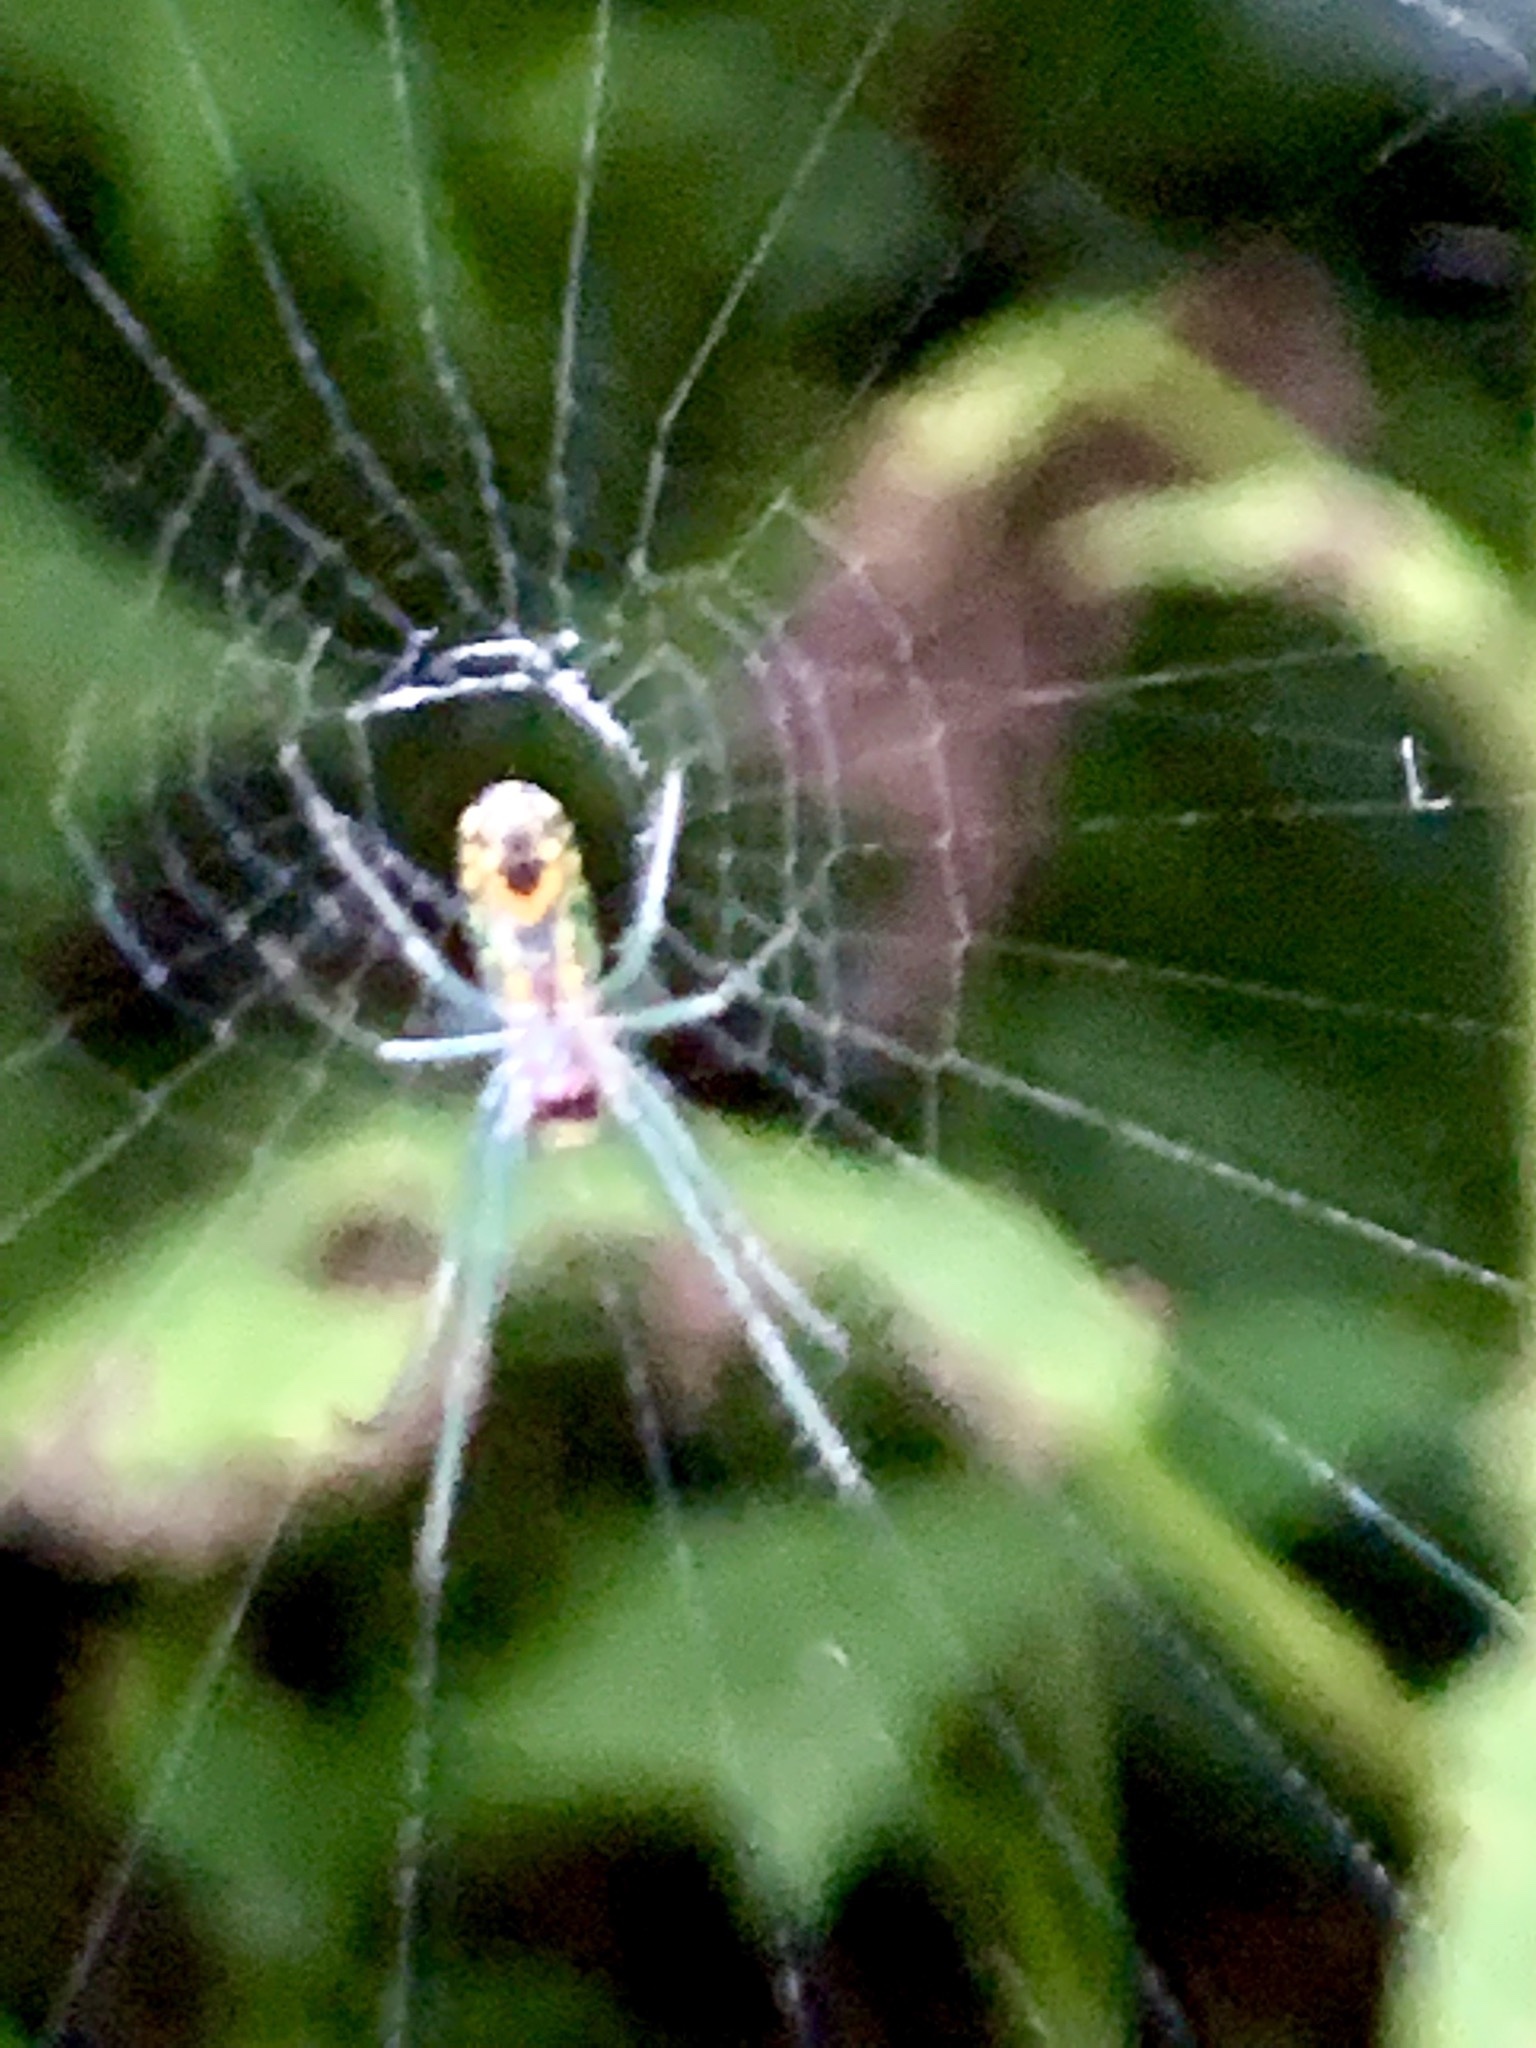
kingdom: Animalia
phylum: Arthropoda
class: Arachnida
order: Araneae
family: Tetragnathidae
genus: Leucauge
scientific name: Leucauge venusta
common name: Longjawed orb weavers
